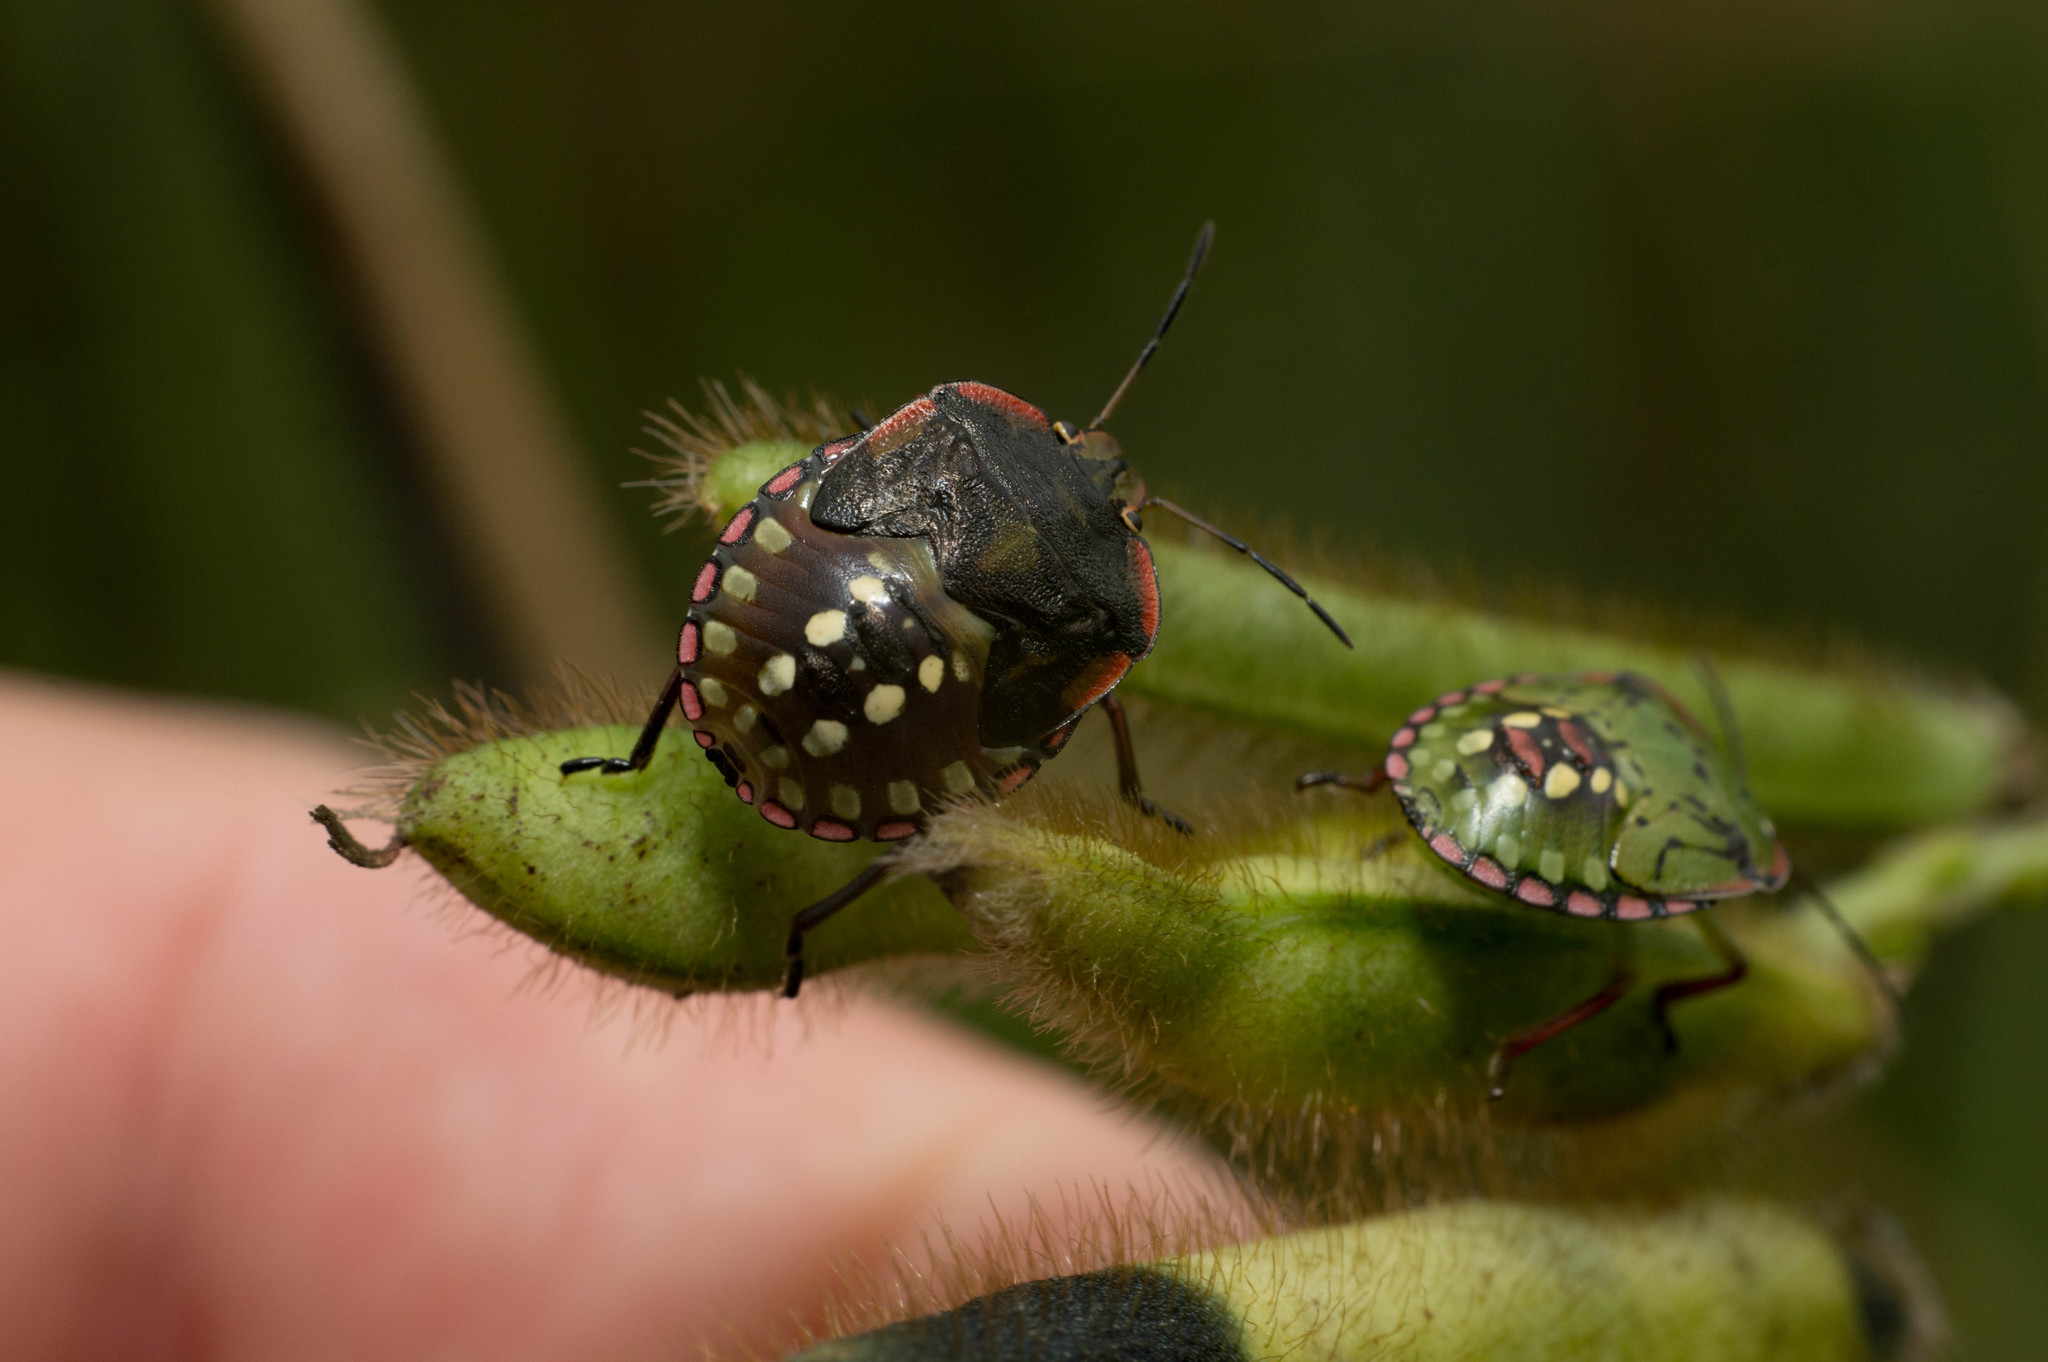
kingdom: Animalia
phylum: Arthropoda
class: Insecta
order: Hemiptera
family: Pentatomidae
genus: Nezara
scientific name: Nezara viridula
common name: Southern green stink bug
